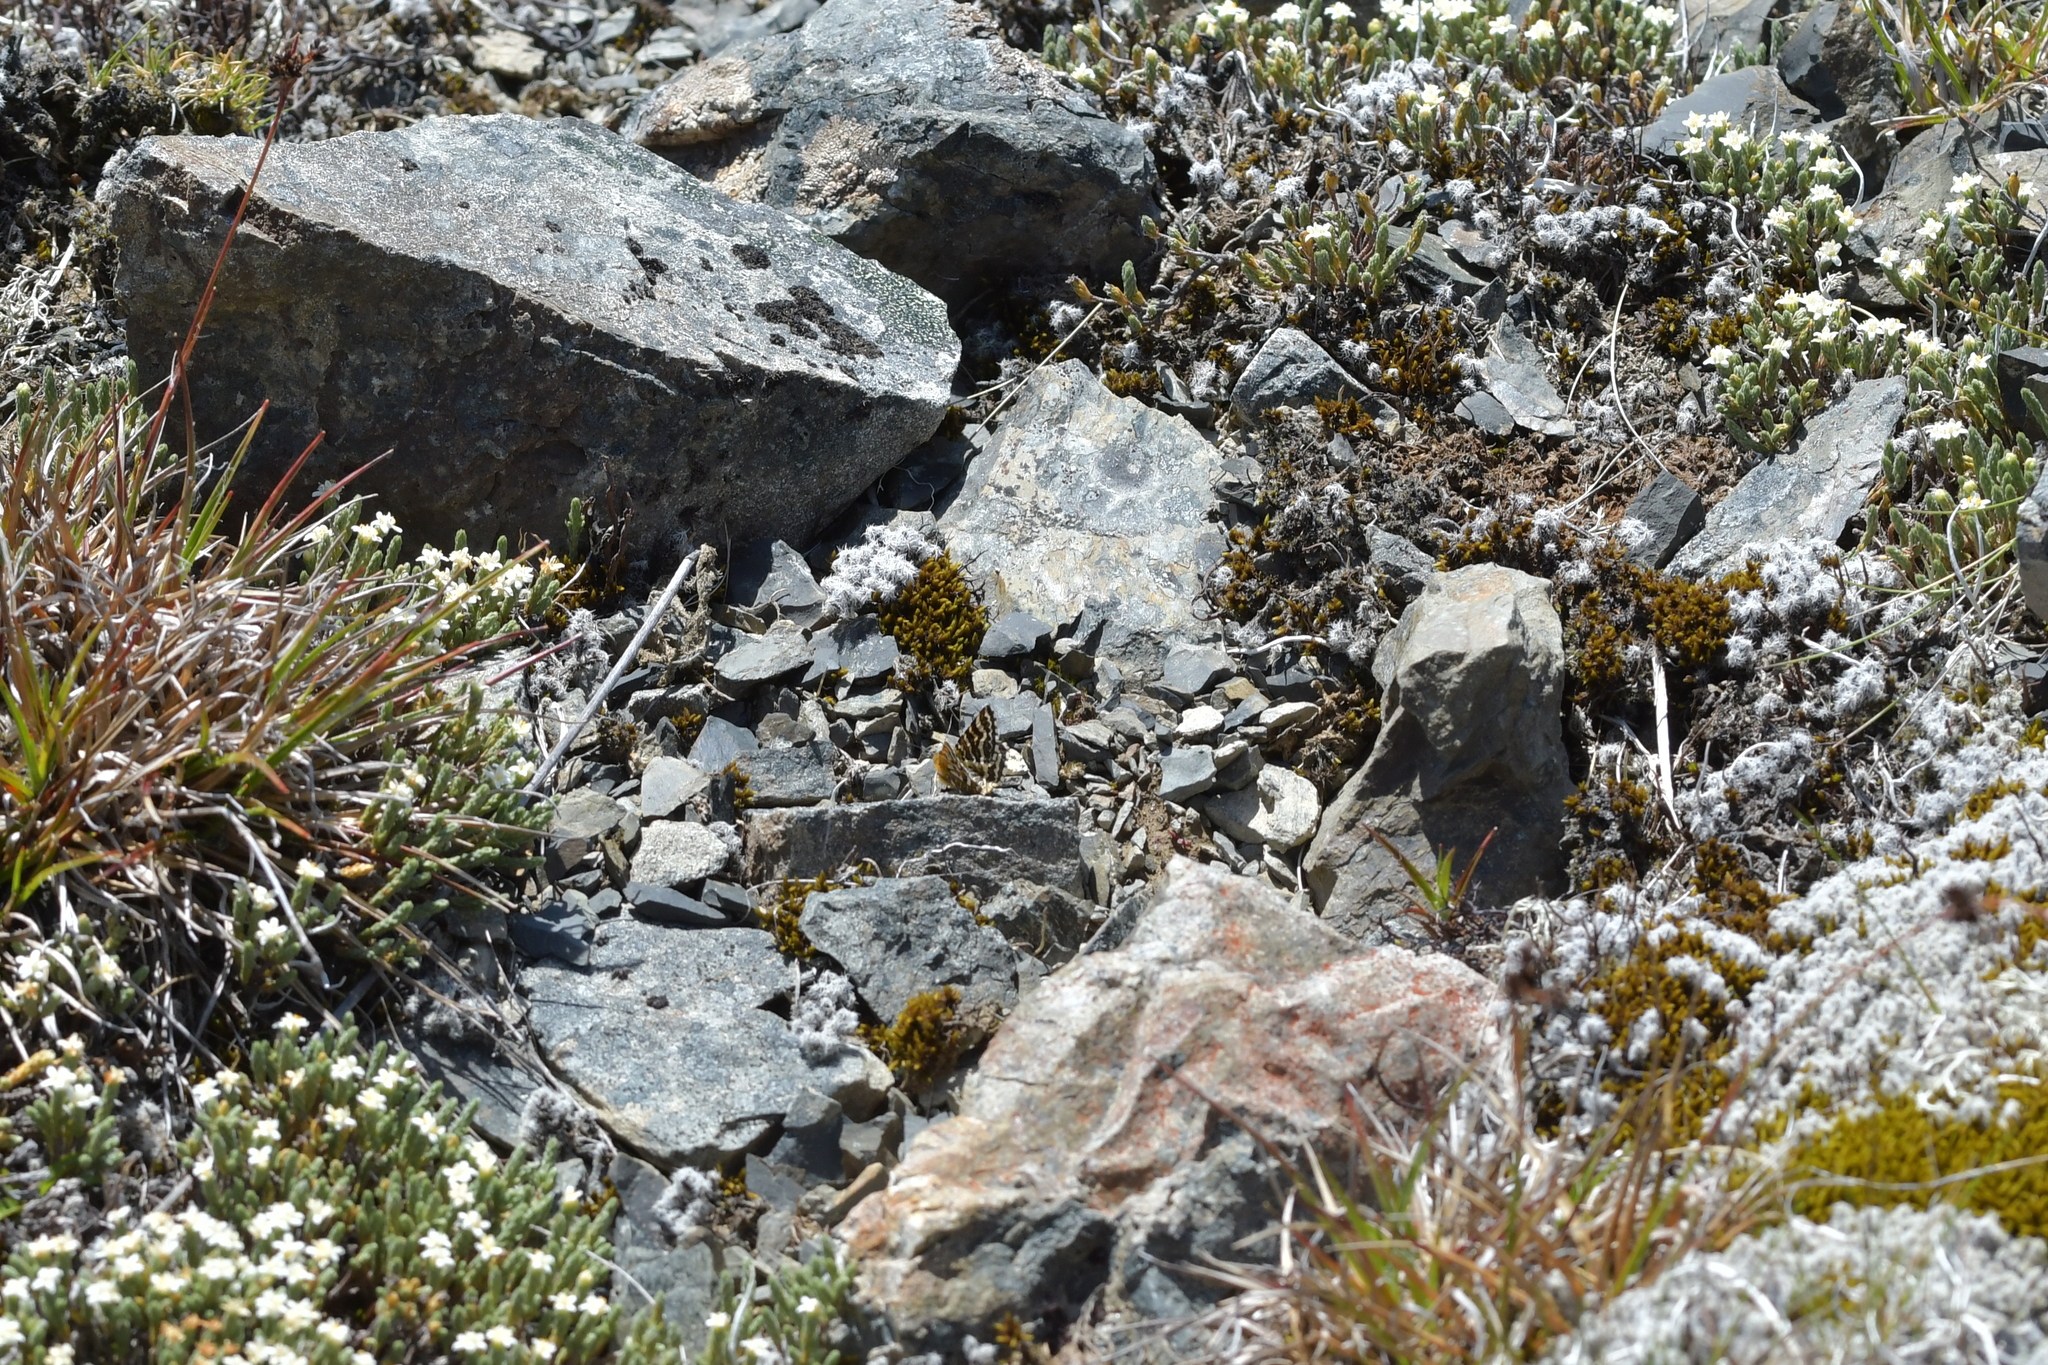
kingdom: Animalia
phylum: Arthropoda
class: Insecta
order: Lepidoptera
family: Geometridae
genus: Dasyuris
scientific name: Dasyuris callicrena
